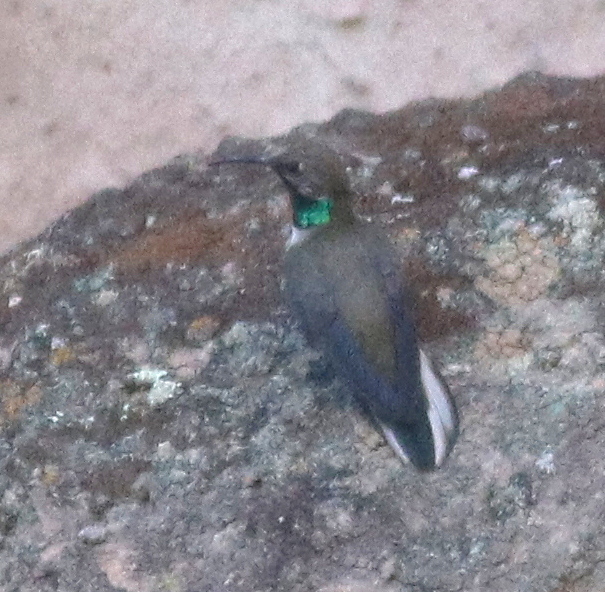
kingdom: Animalia
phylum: Chordata
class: Aves
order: Apodiformes
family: Trochilidae
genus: Oreotrochilus
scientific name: Oreotrochilus estella
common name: Andean hillstar
